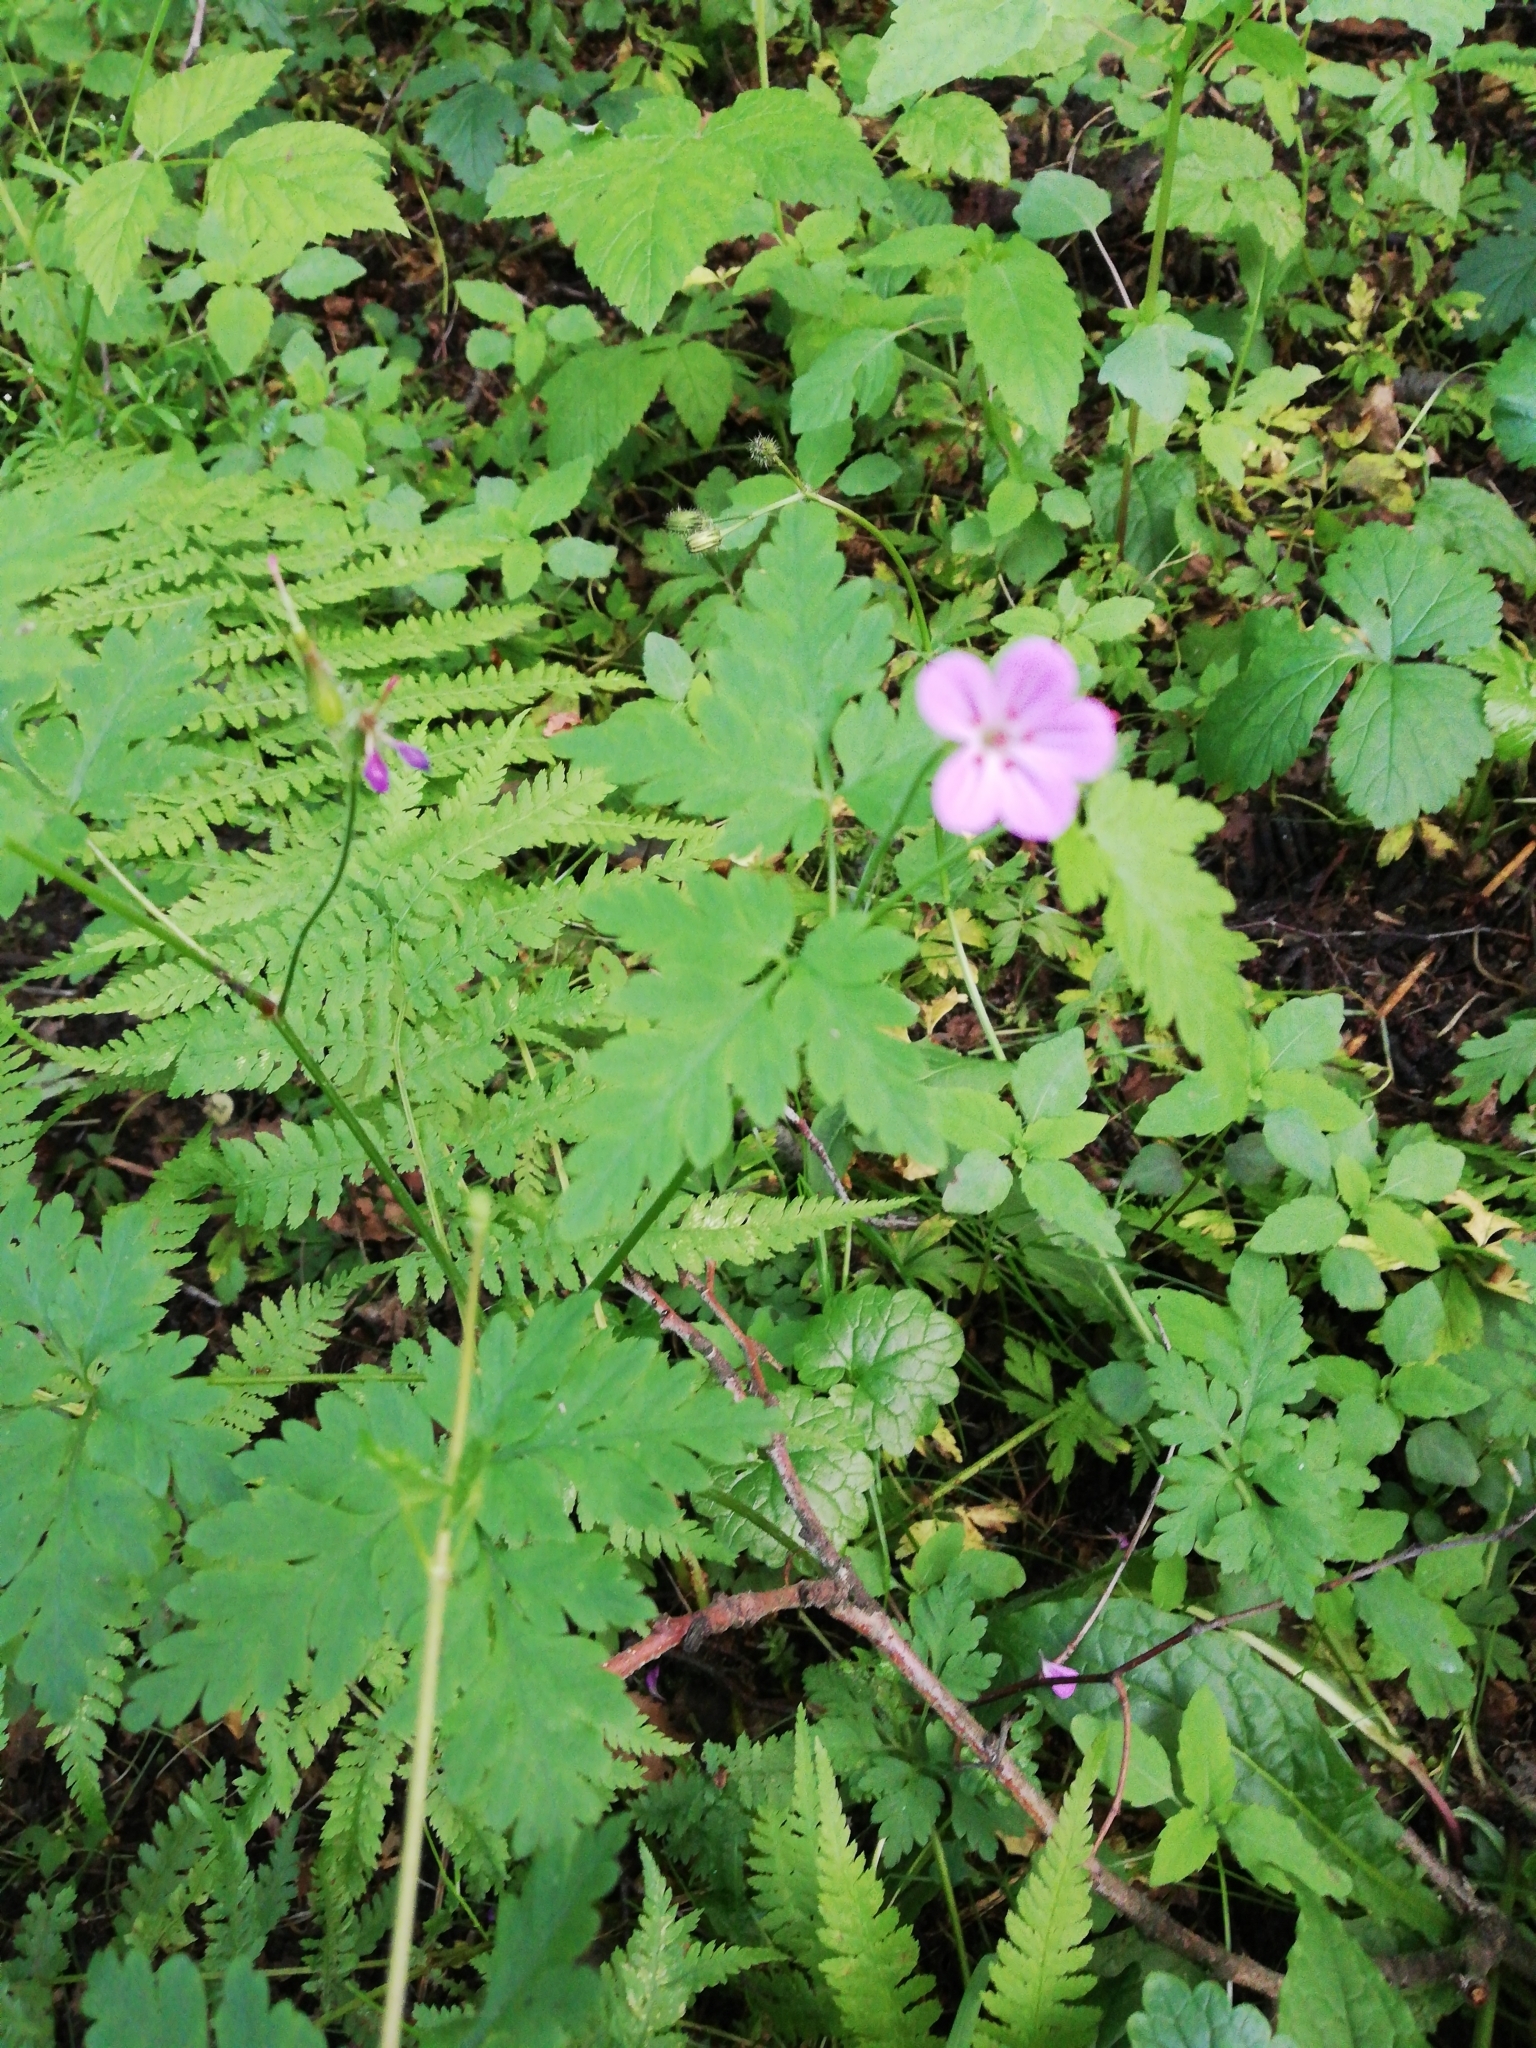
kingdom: Plantae
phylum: Tracheophyta
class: Magnoliopsida
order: Geraniales
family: Geraniaceae
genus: Geranium
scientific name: Geranium robertianum
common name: Herb-robert
